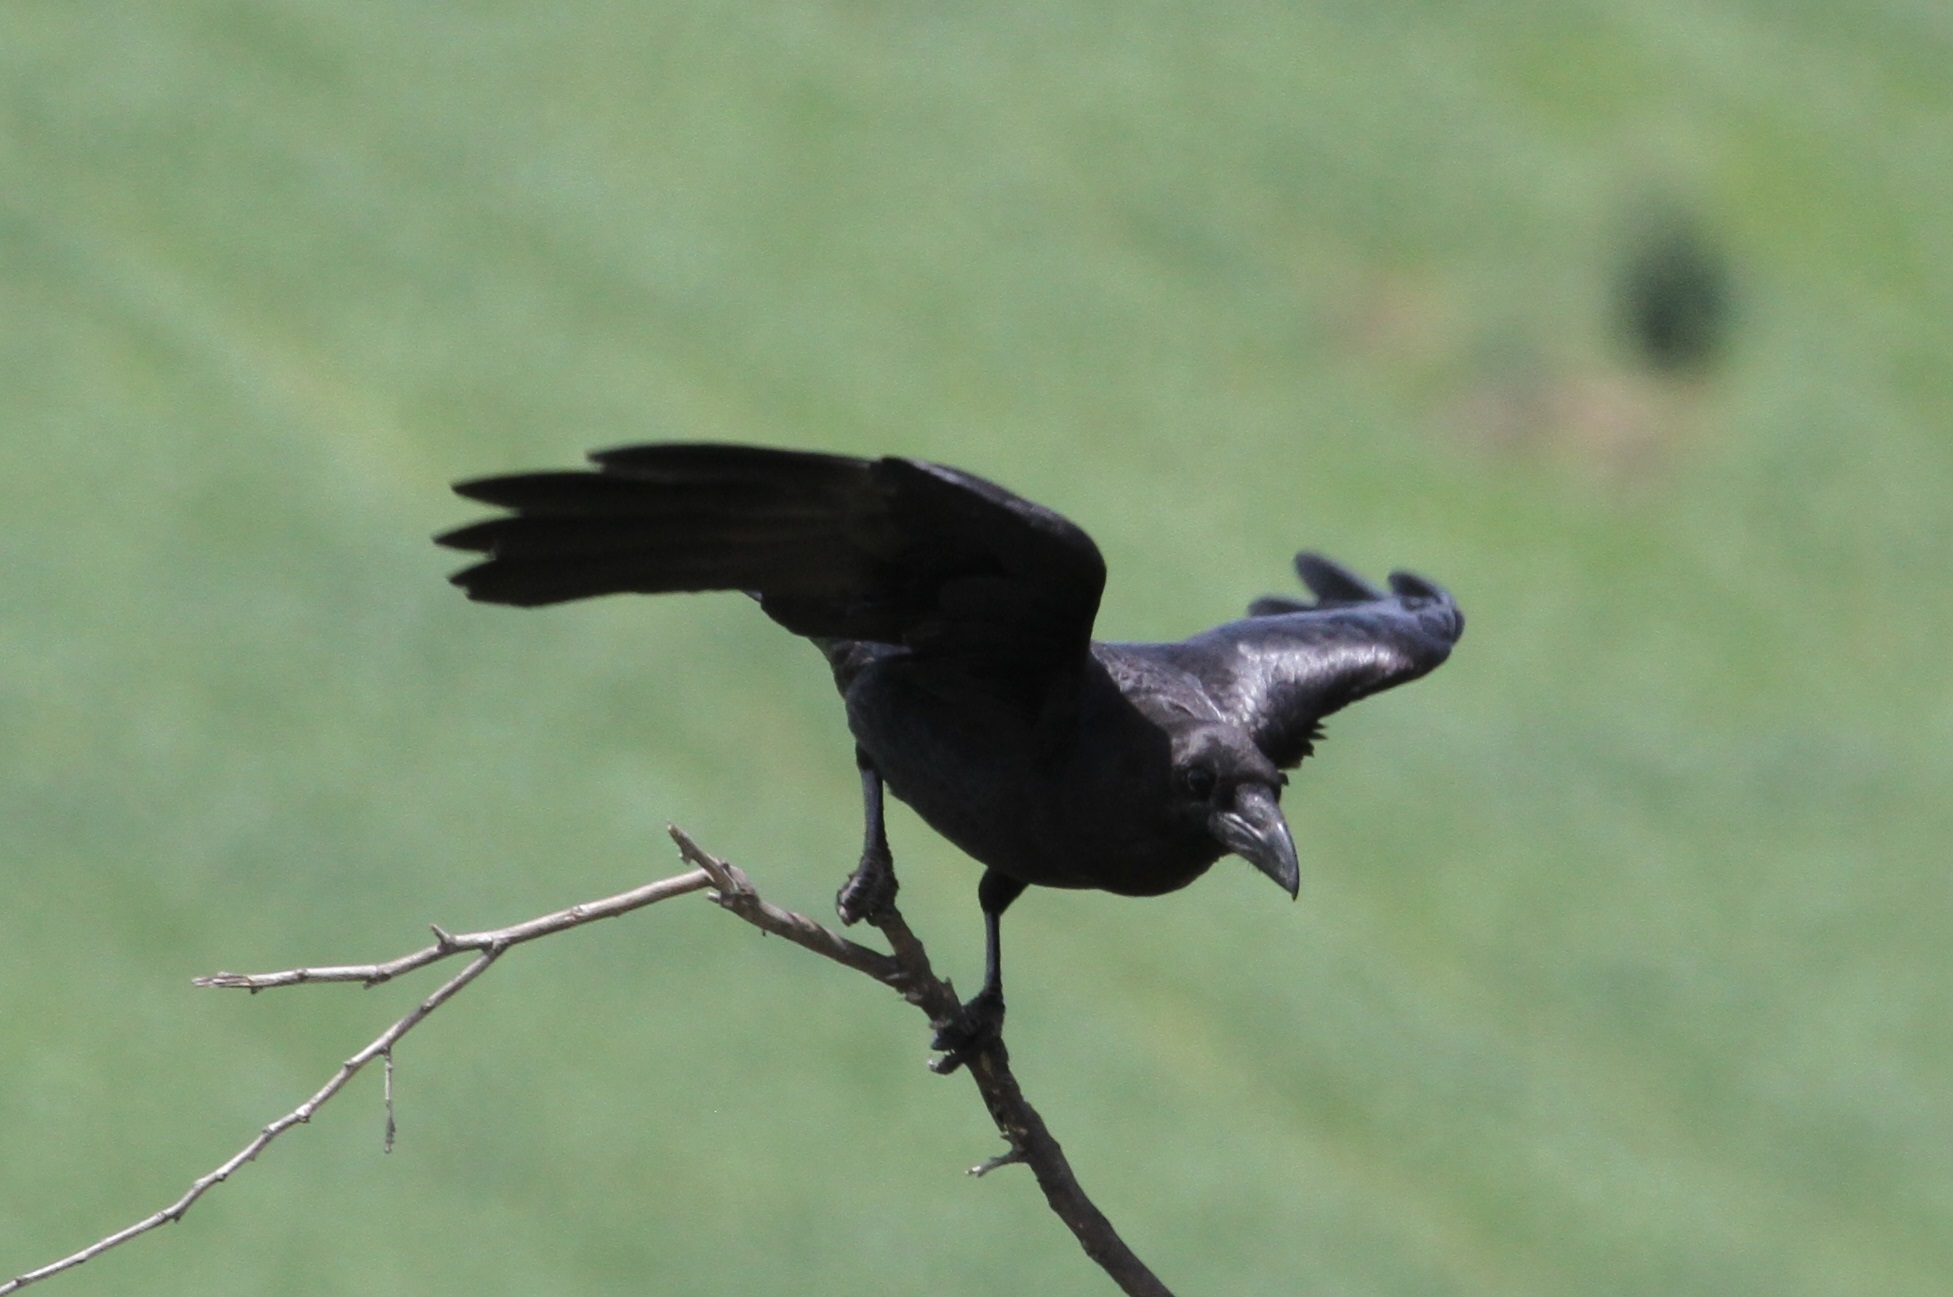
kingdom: Animalia
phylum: Chordata
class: Aves
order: Passeriformes
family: Corvidae
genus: Corvus
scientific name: Corvus corax
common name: Common raven
